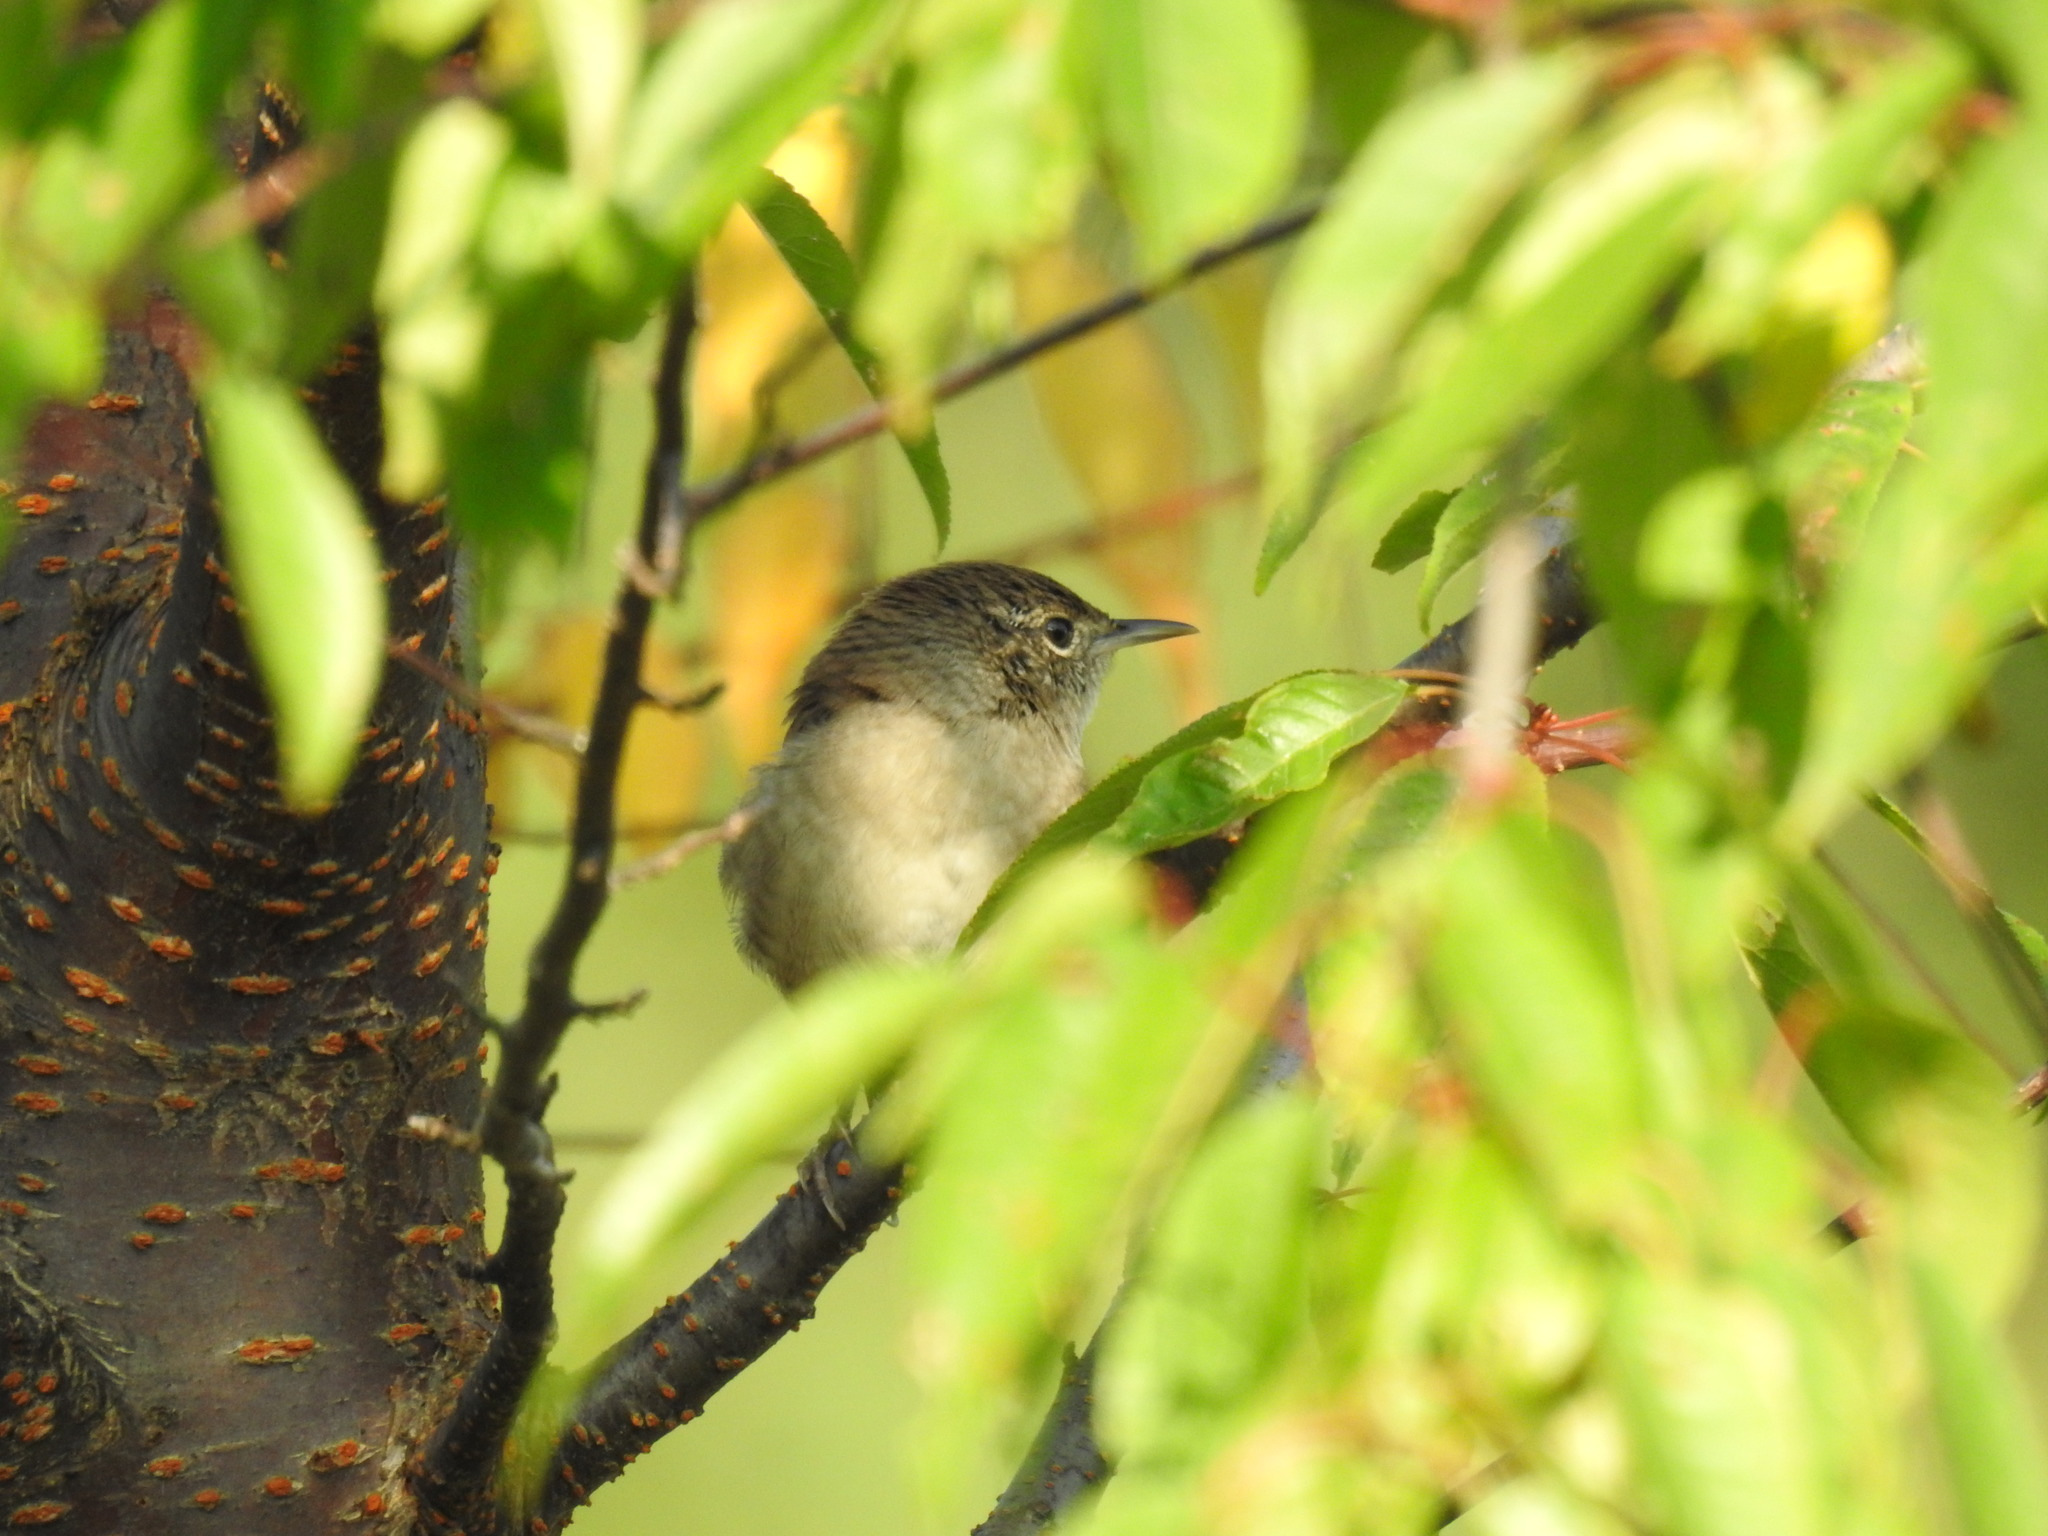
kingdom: Animalia
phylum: Chordata
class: Aves
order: Passeriformes
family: Troglodytidae
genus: Troglodytes
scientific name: Troglodytes aedon
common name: House wren
